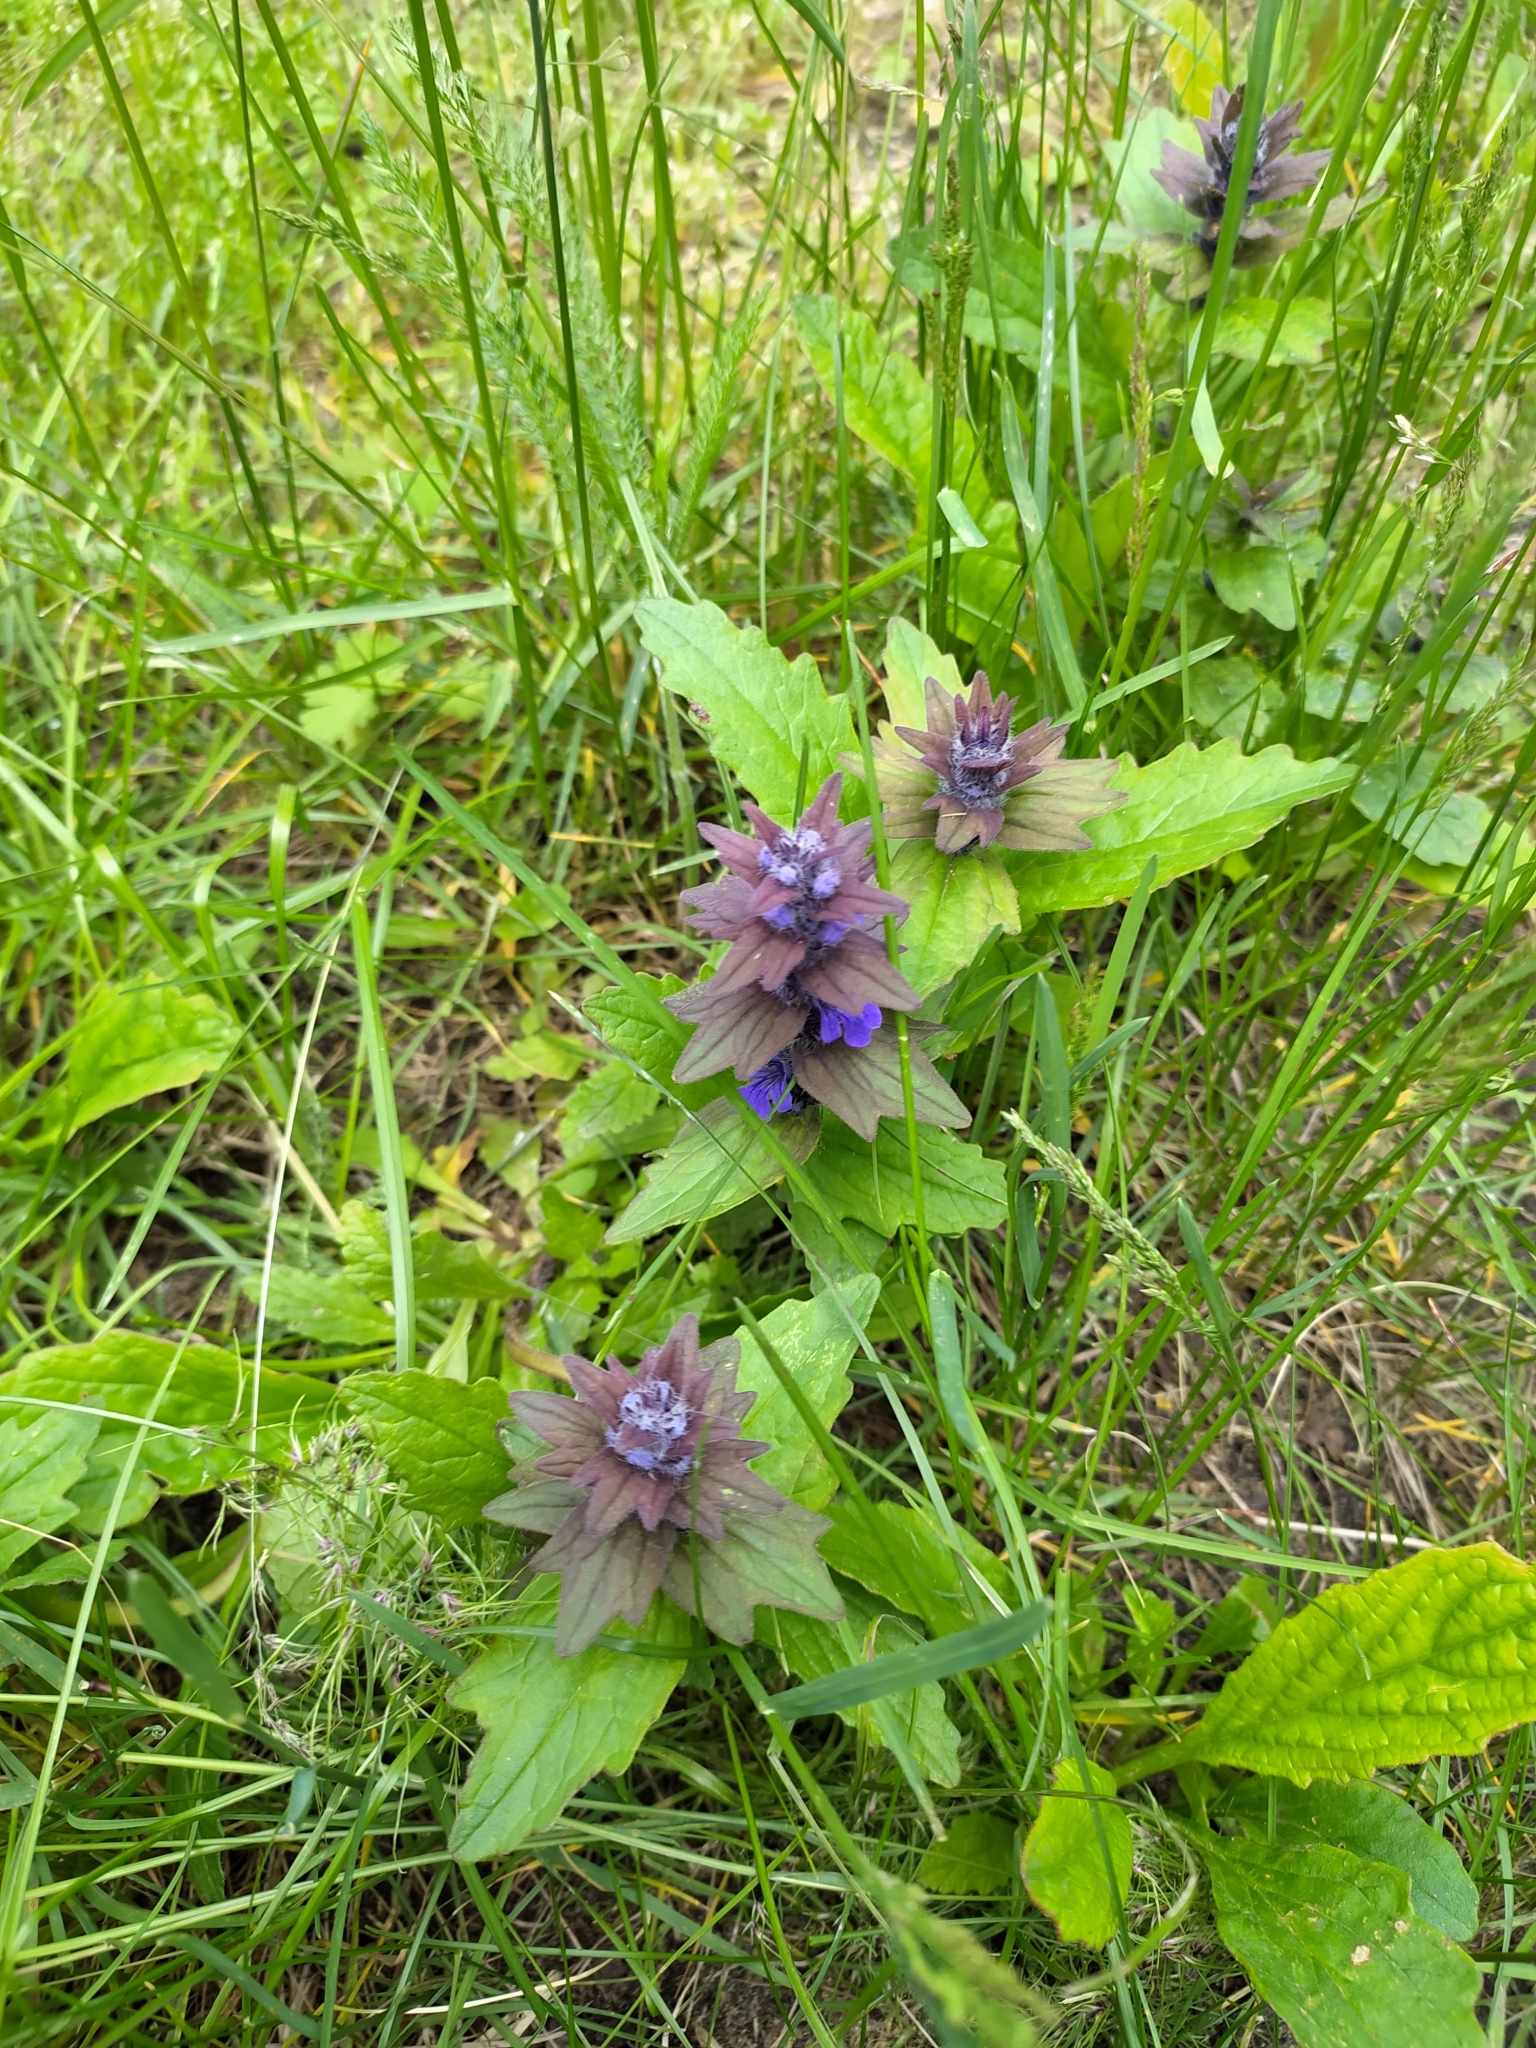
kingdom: Plantae
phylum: Tracheophyta
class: Magnoliopsida
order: Lamiales
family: Lamiaceae
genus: Ajuga
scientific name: Ajuga genevensis
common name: Blue bugle
